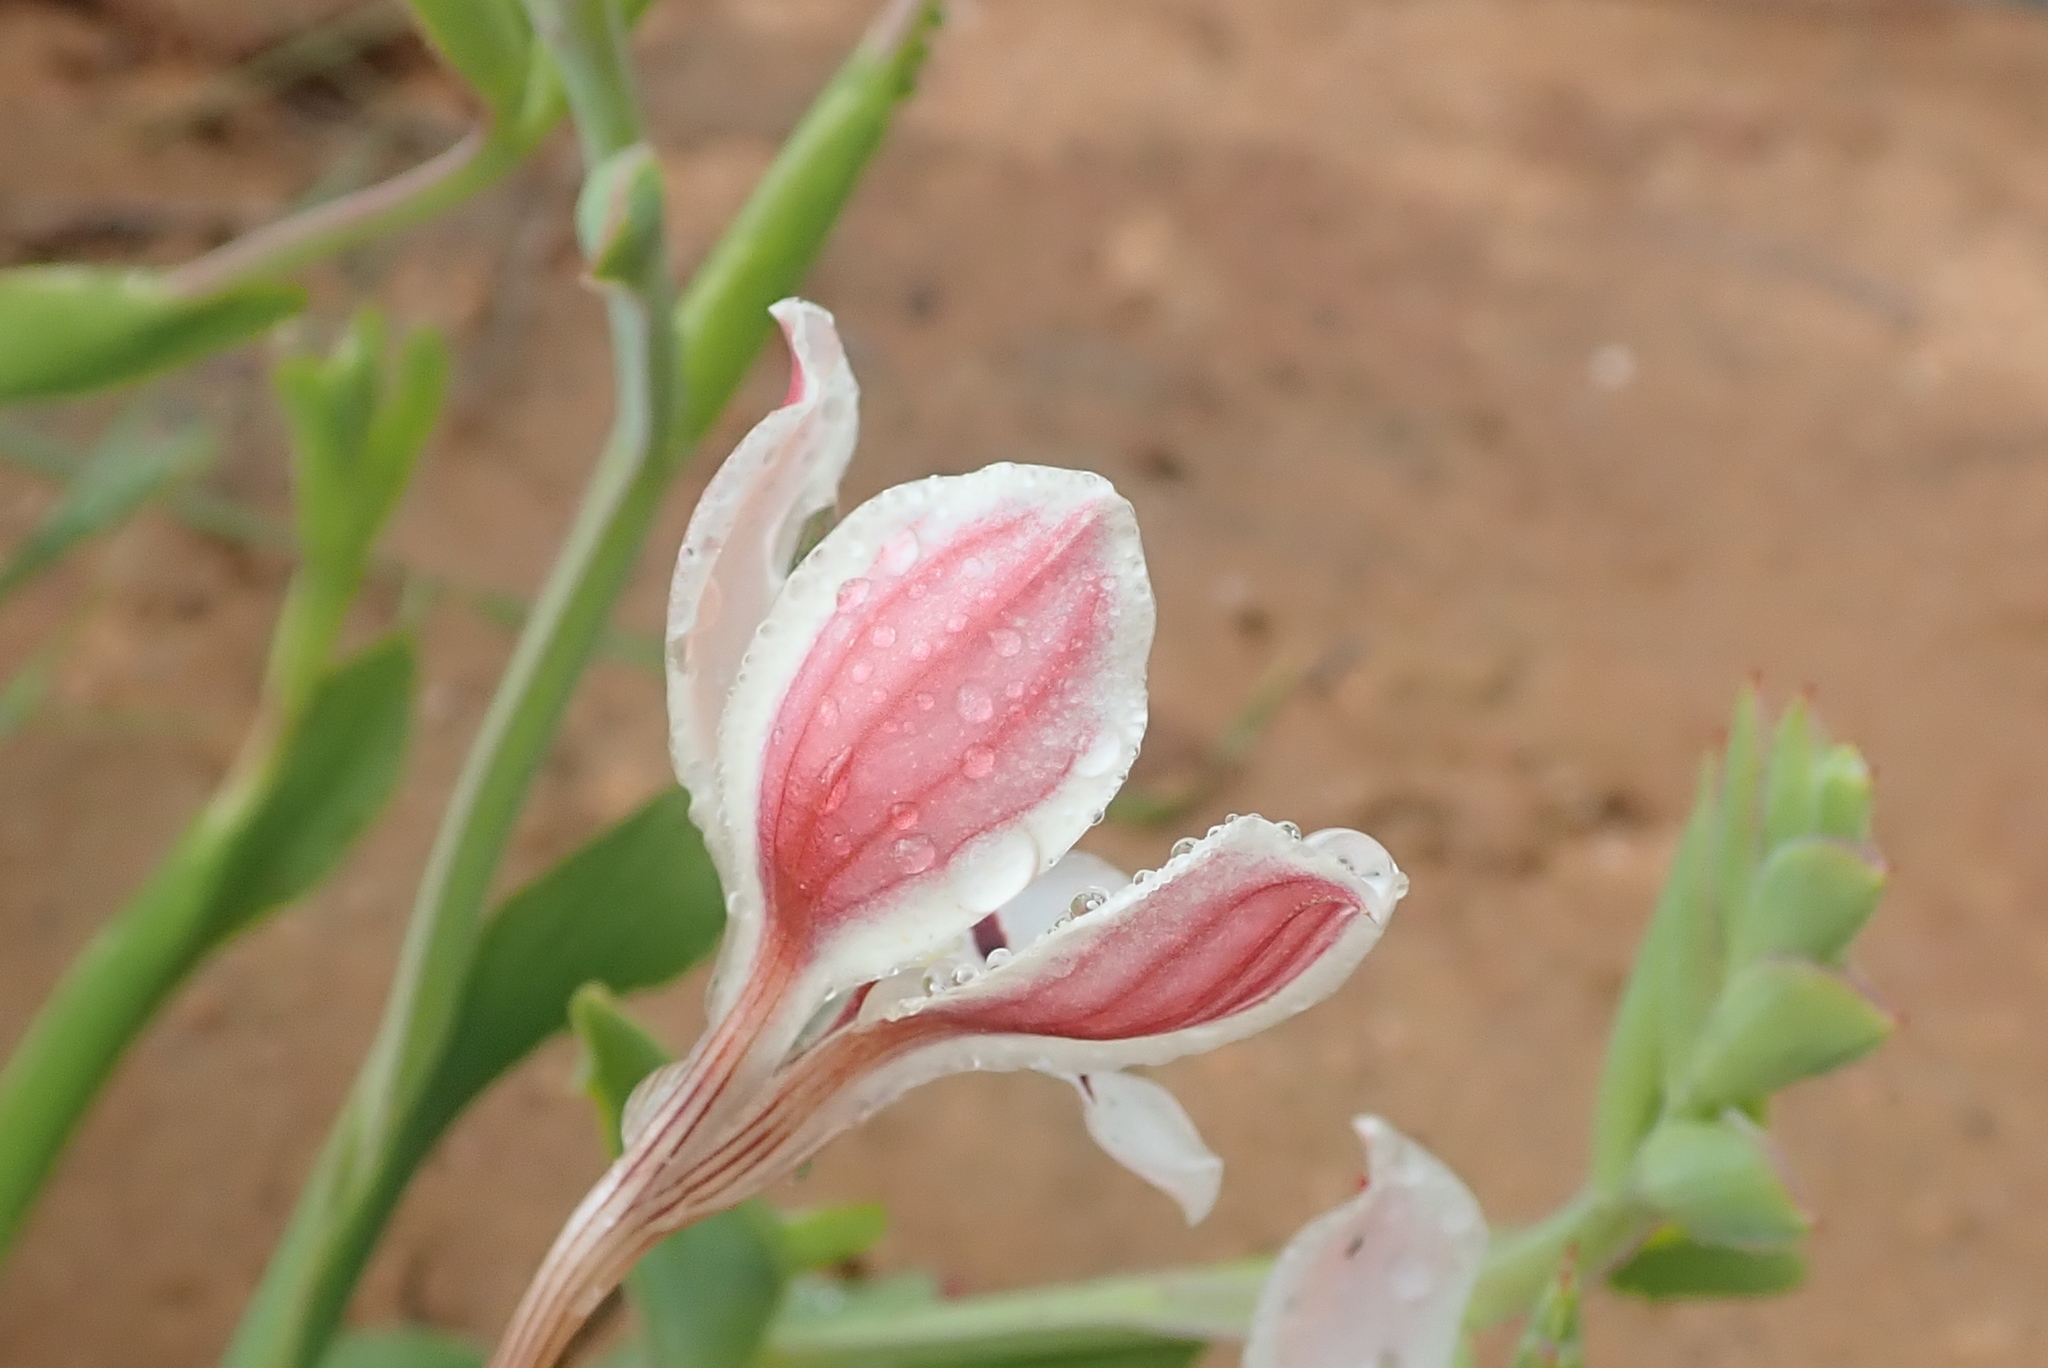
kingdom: Plantae
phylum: Tracheophyta
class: Liliopsida
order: Asparagales
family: Iridaceae
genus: Lapeirousia
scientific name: Lapeirousia fabricii
